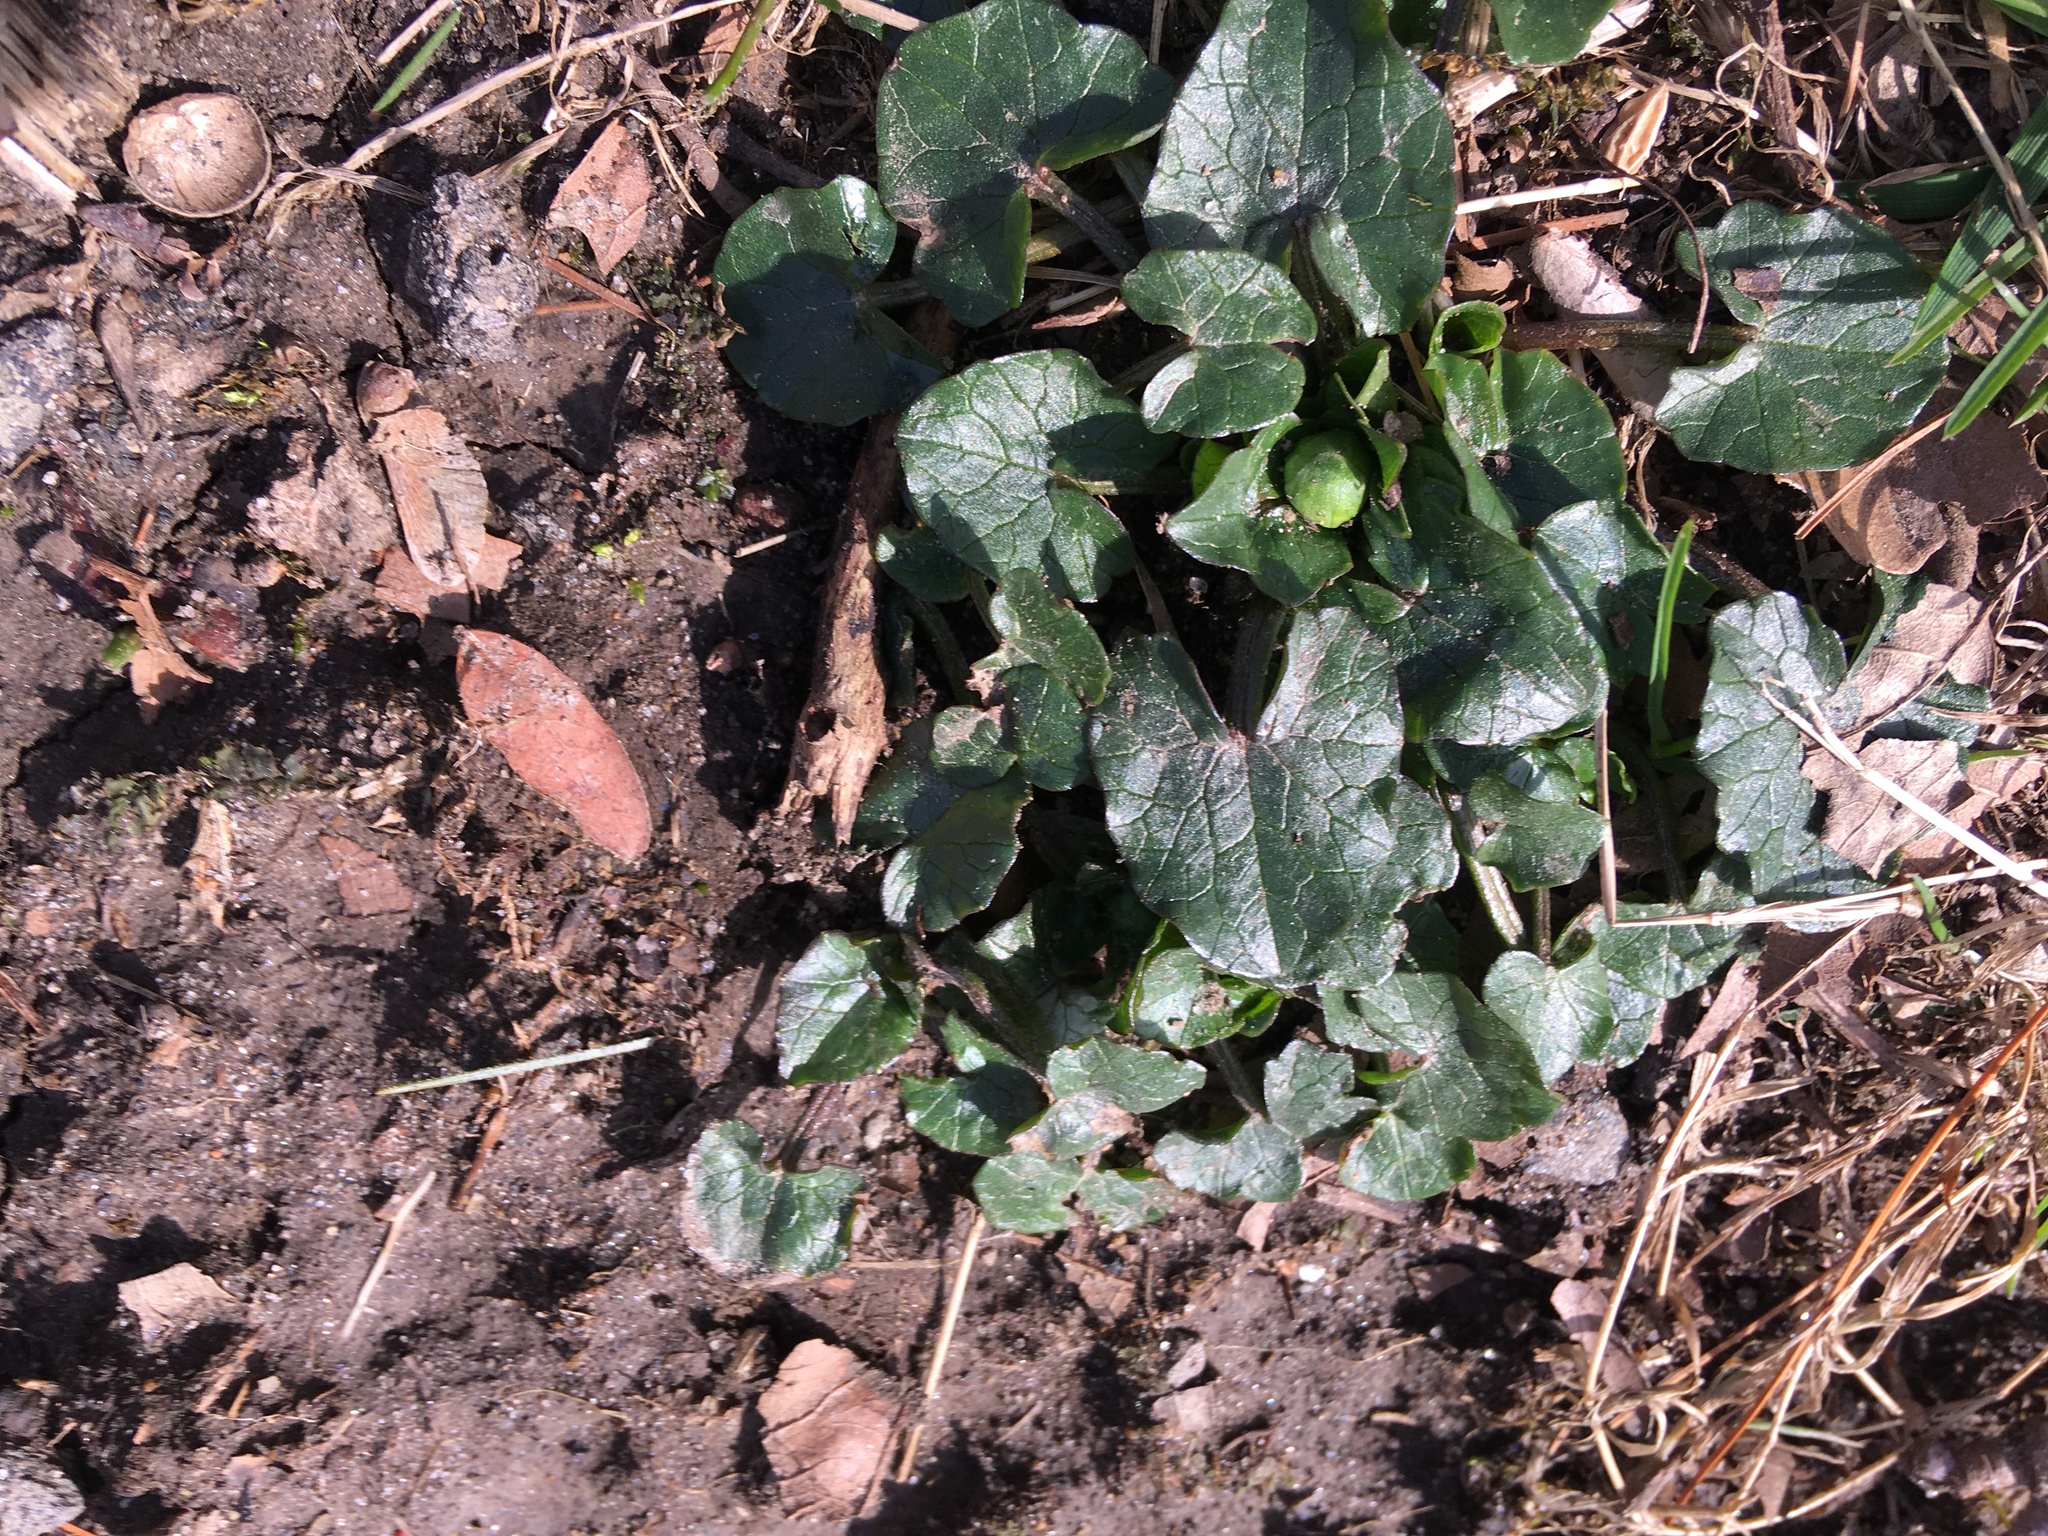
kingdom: Plantae
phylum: Tracheophyta
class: Magnoliopsida
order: Ranunculales
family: Ranunculaceae
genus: Ficaria
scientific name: Ficaria verna
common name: Lesser celandine
